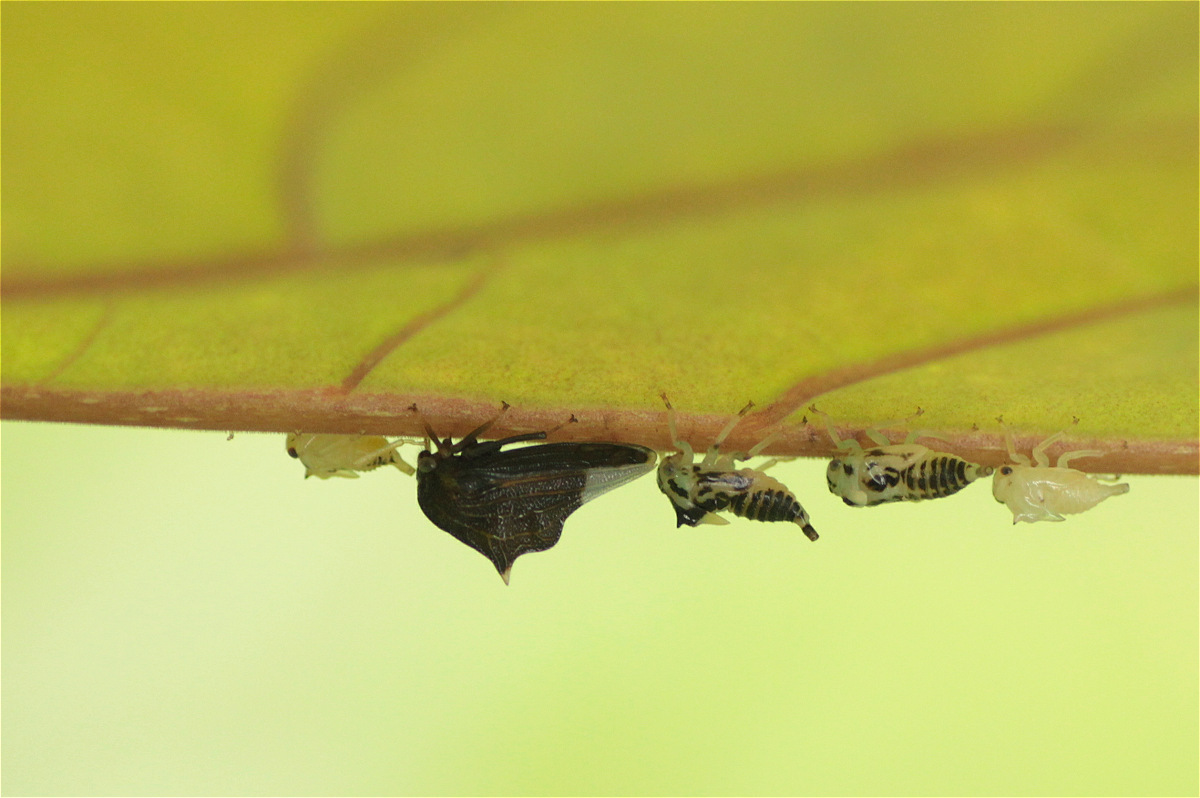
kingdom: Animalia
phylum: Arthropoda
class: Insecta
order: Hemiptera
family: Membracidae
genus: Ennya
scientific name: Ennya chrysura
